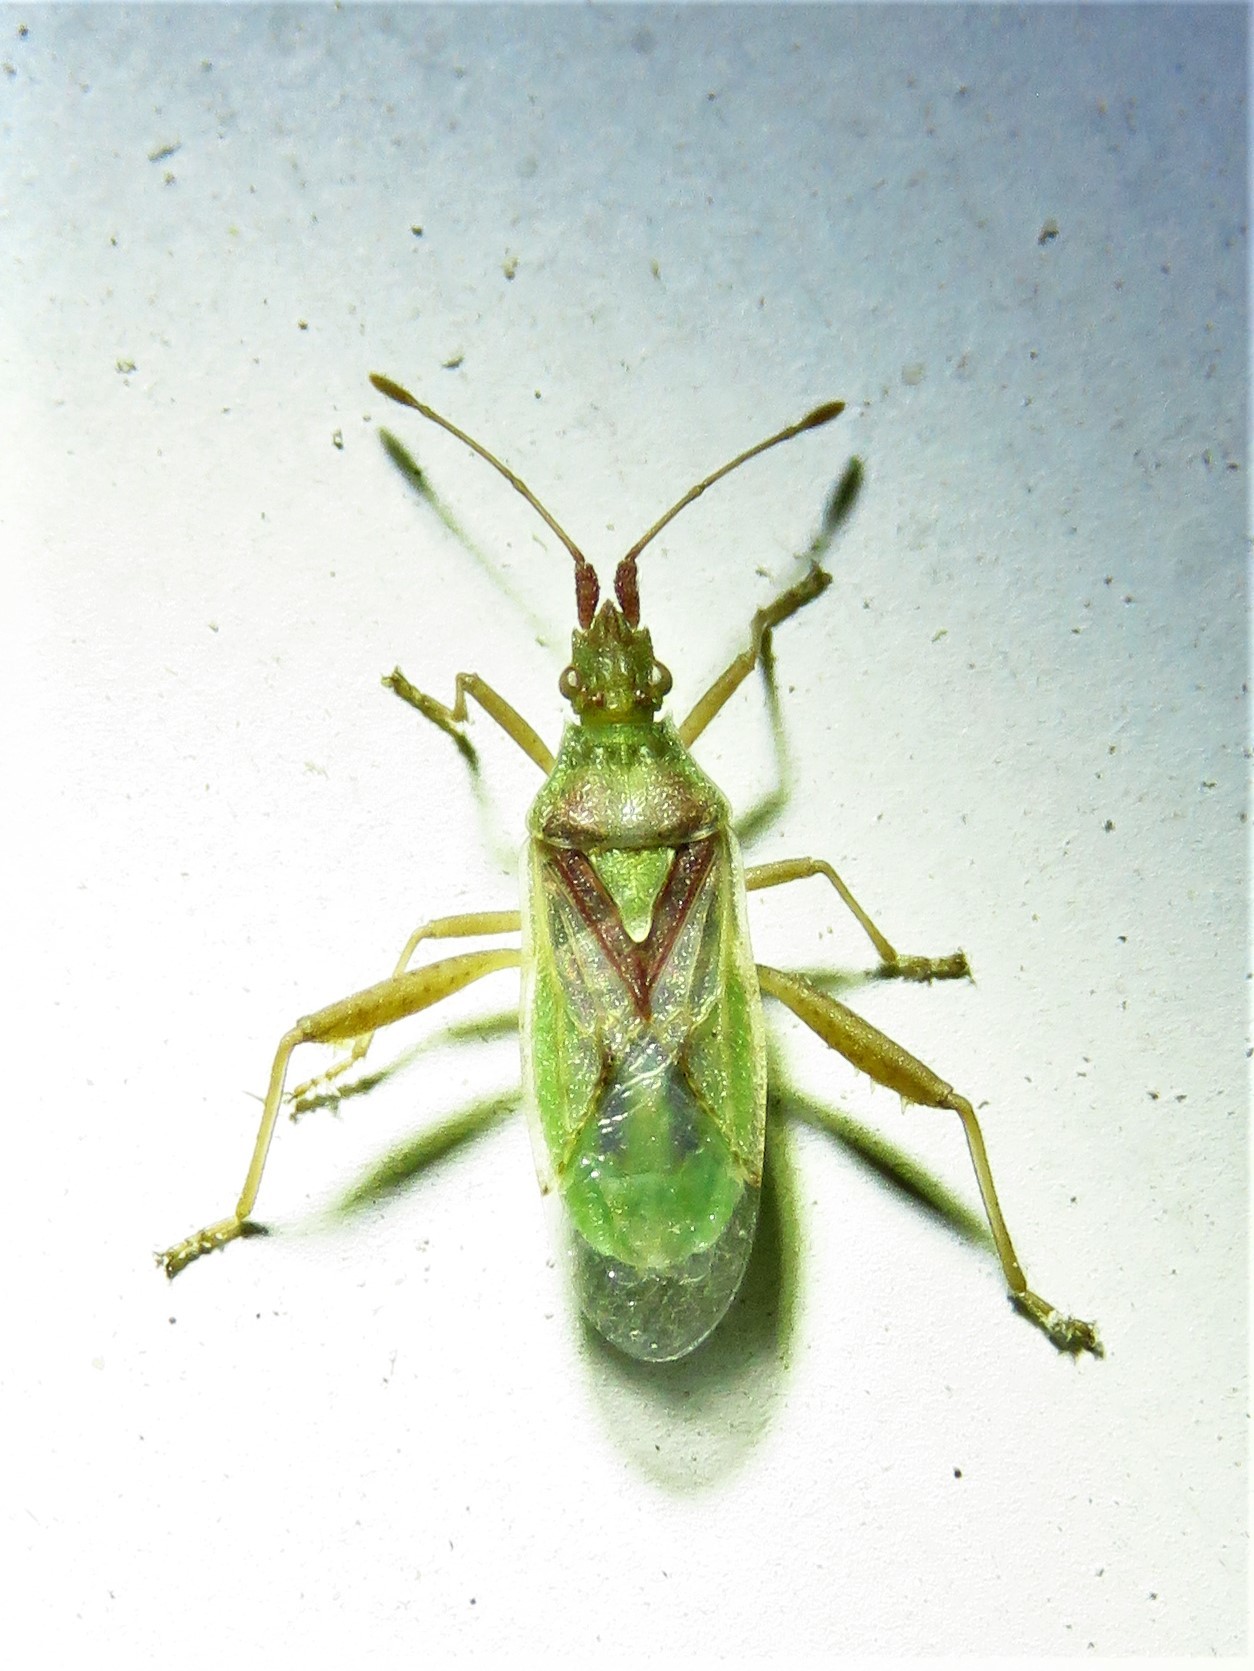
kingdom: Animalia
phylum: Arthropoda
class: Insecta
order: Hemiptera
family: Rhopalidae
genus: Harmostes
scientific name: Harmostes reflexulus
